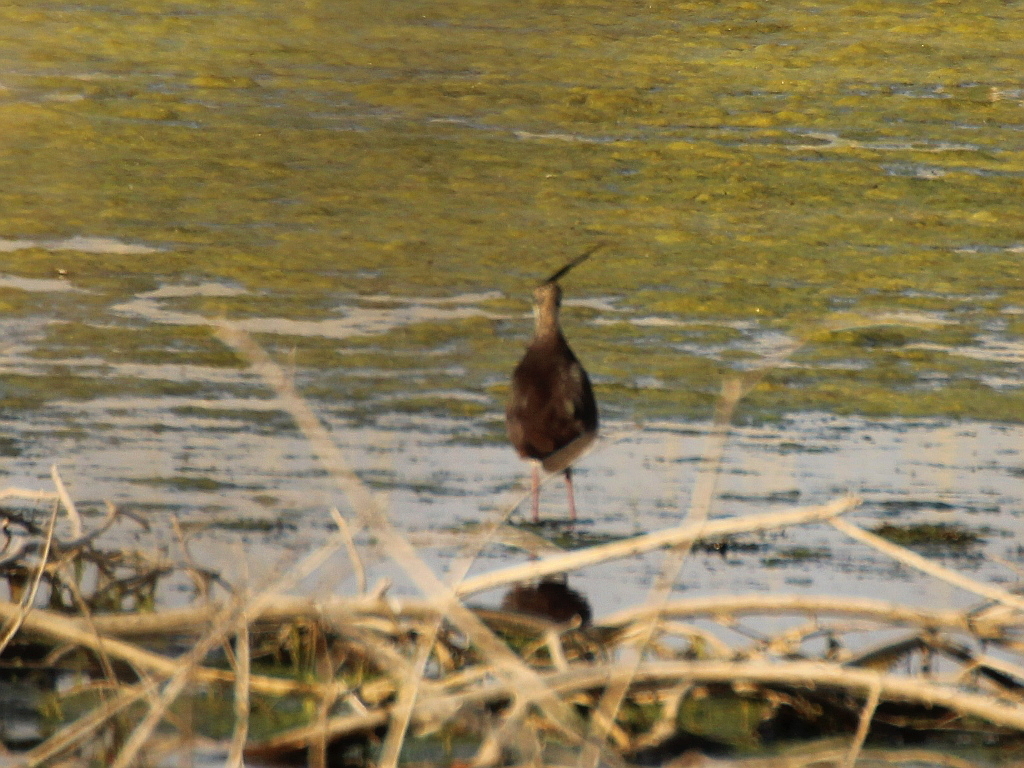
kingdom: Animalia
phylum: Chordata
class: Aves
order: Charadriiformes
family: Charadriidae
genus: Vanellus
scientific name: Vanellus vanellus
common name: Northern lapwing
